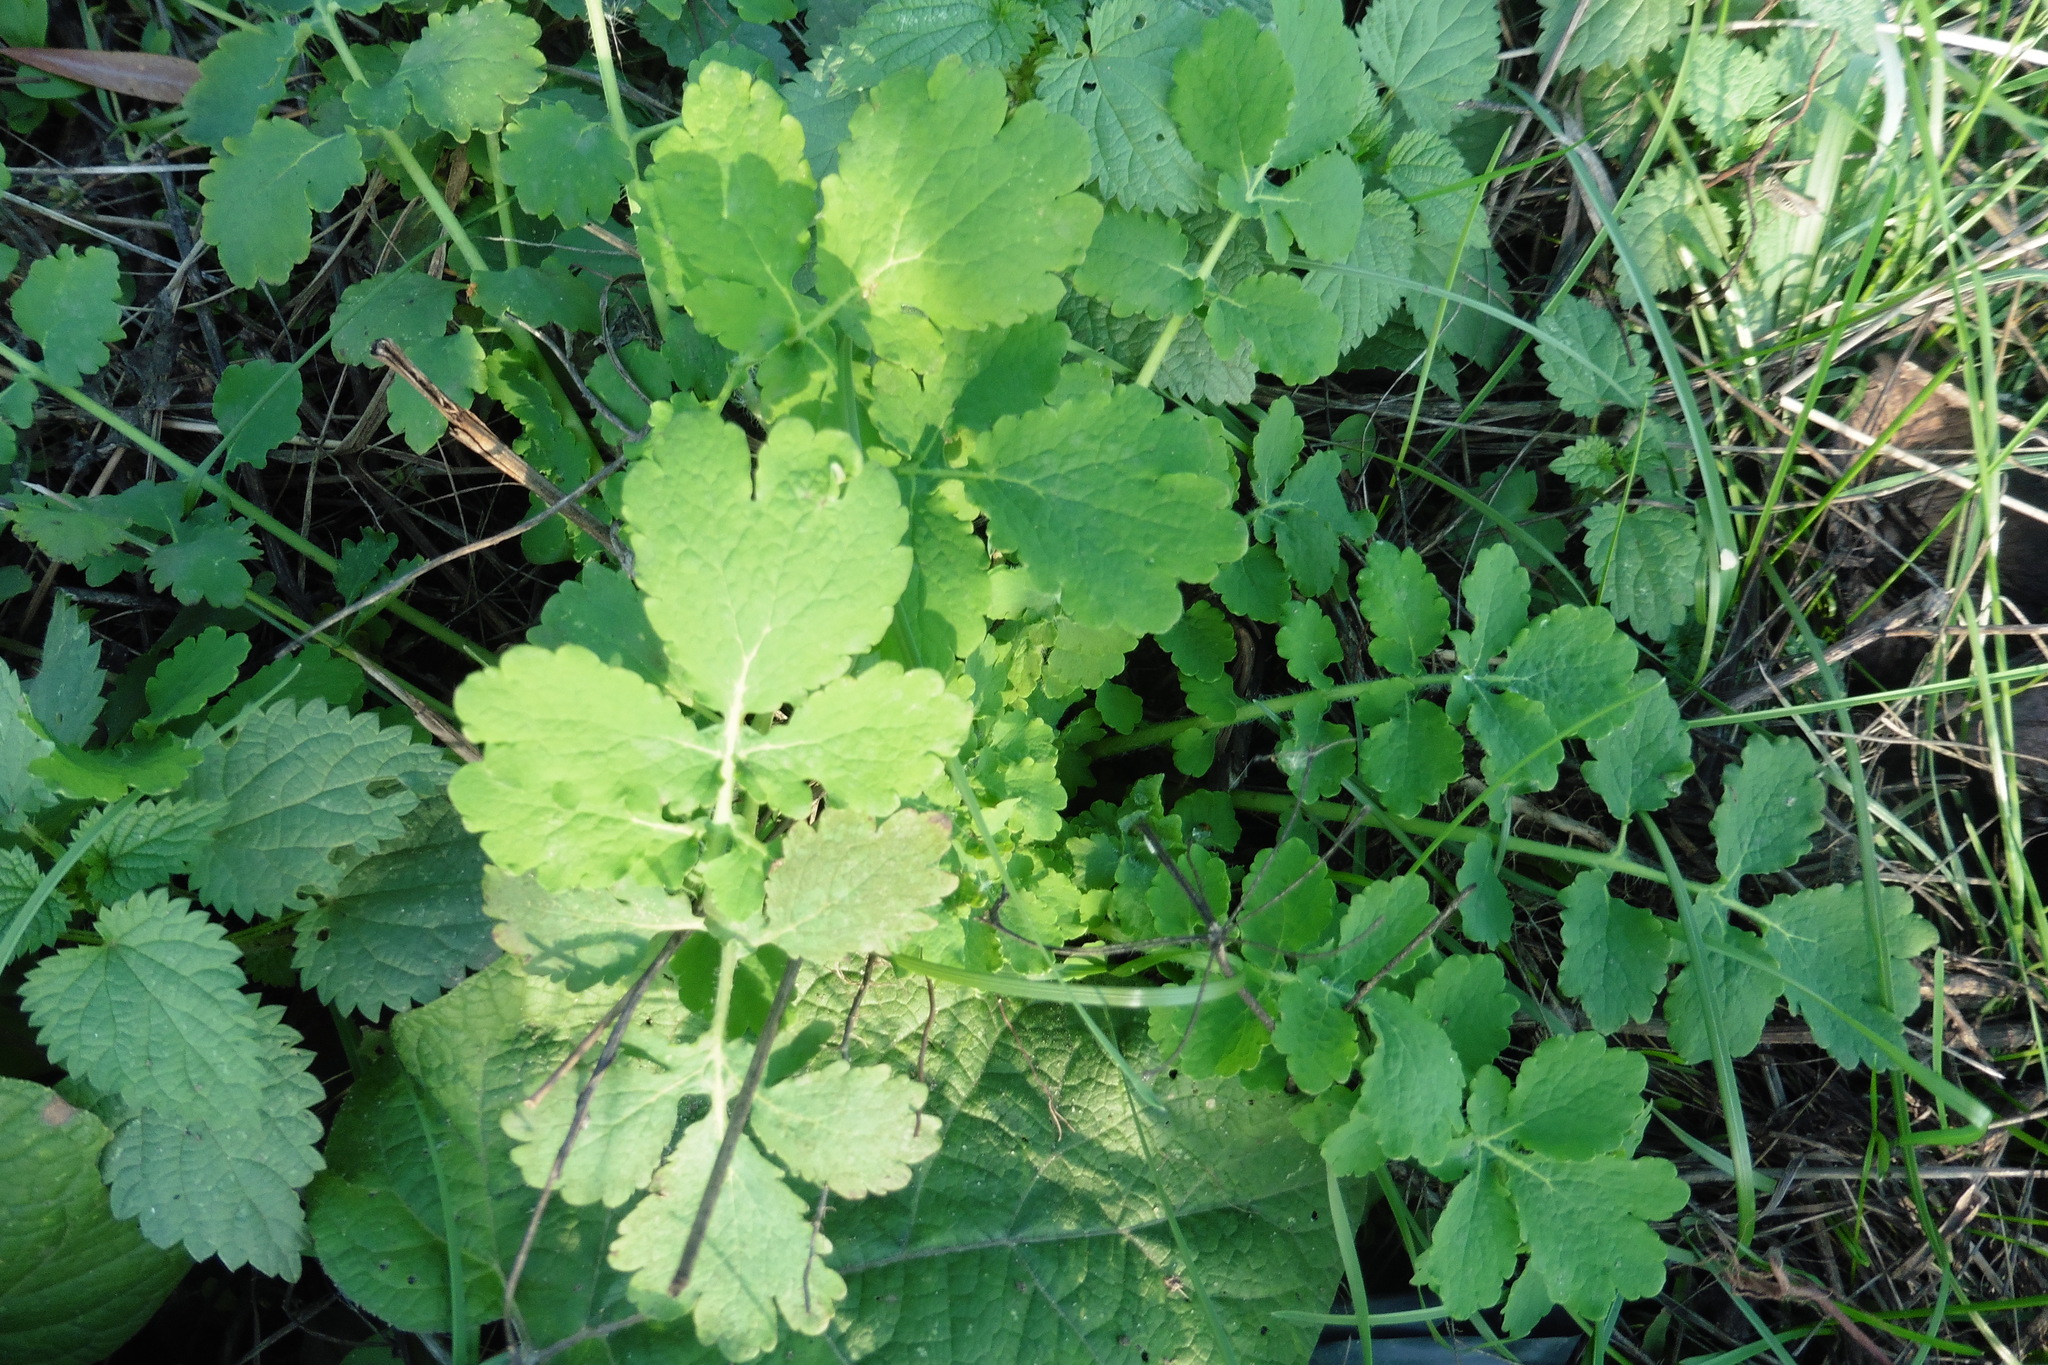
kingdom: Plantae
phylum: Tracheophyta
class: Magnoliopsida
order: Ranunculales
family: Papaveraceae
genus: Chelidonium
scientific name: Chelidonium majus
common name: Greater celandine
